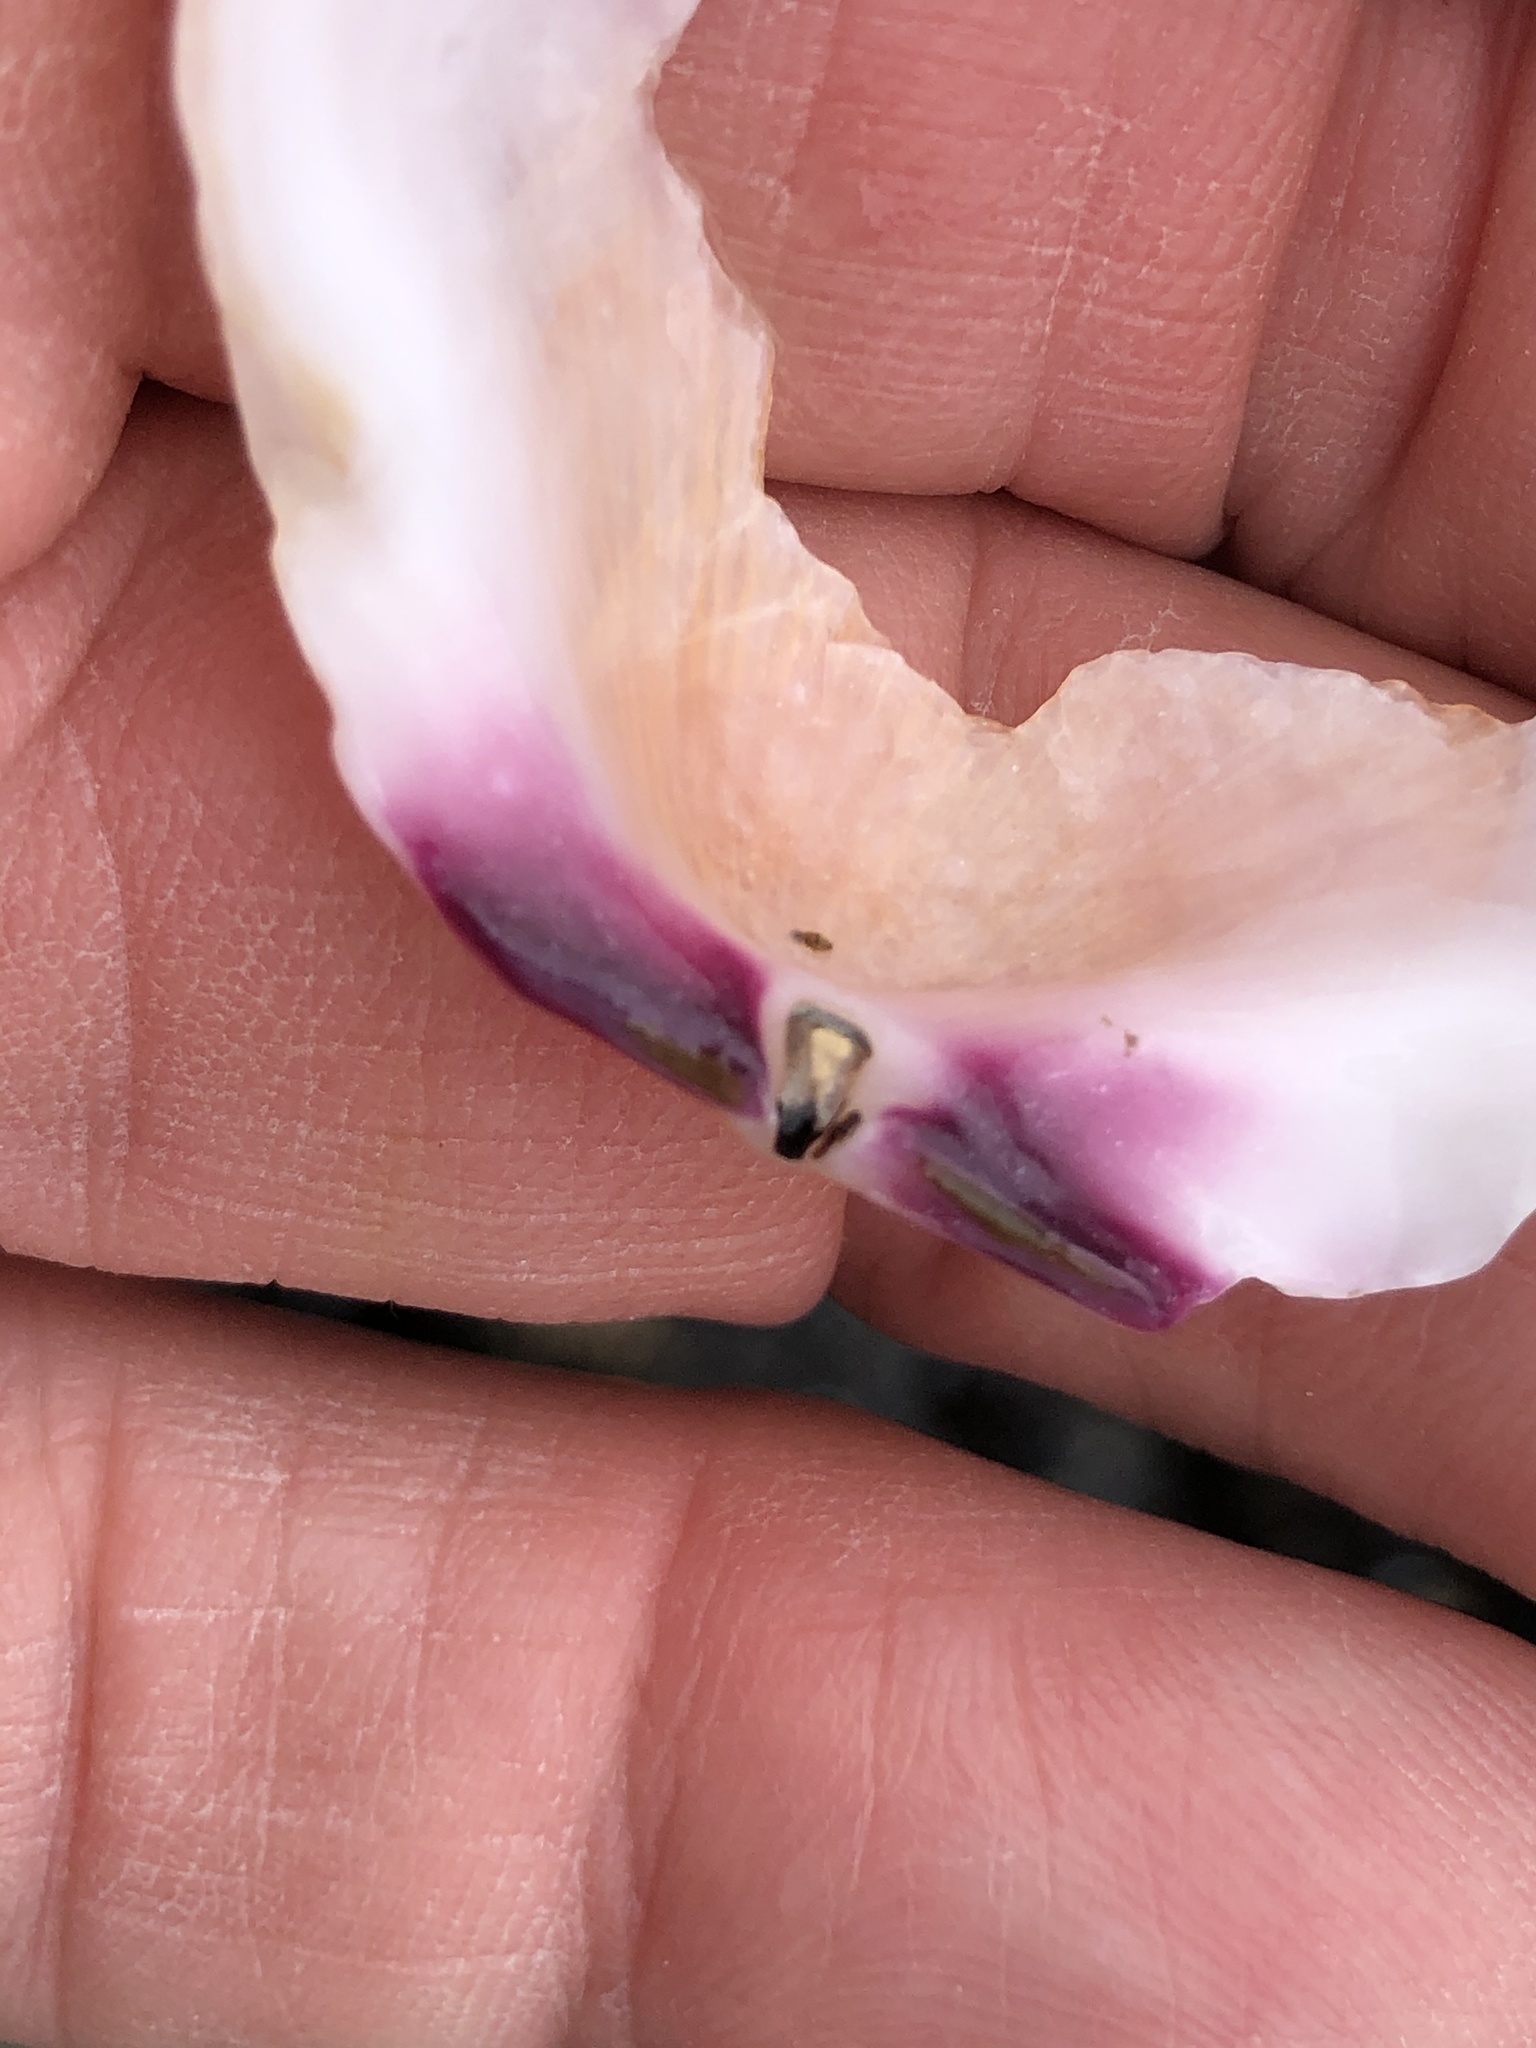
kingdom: Animalia
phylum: Mollusca
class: Bivalvia
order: Pectinida
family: Pectinidae
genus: Crassadoma
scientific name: Crassadoma gigantea
